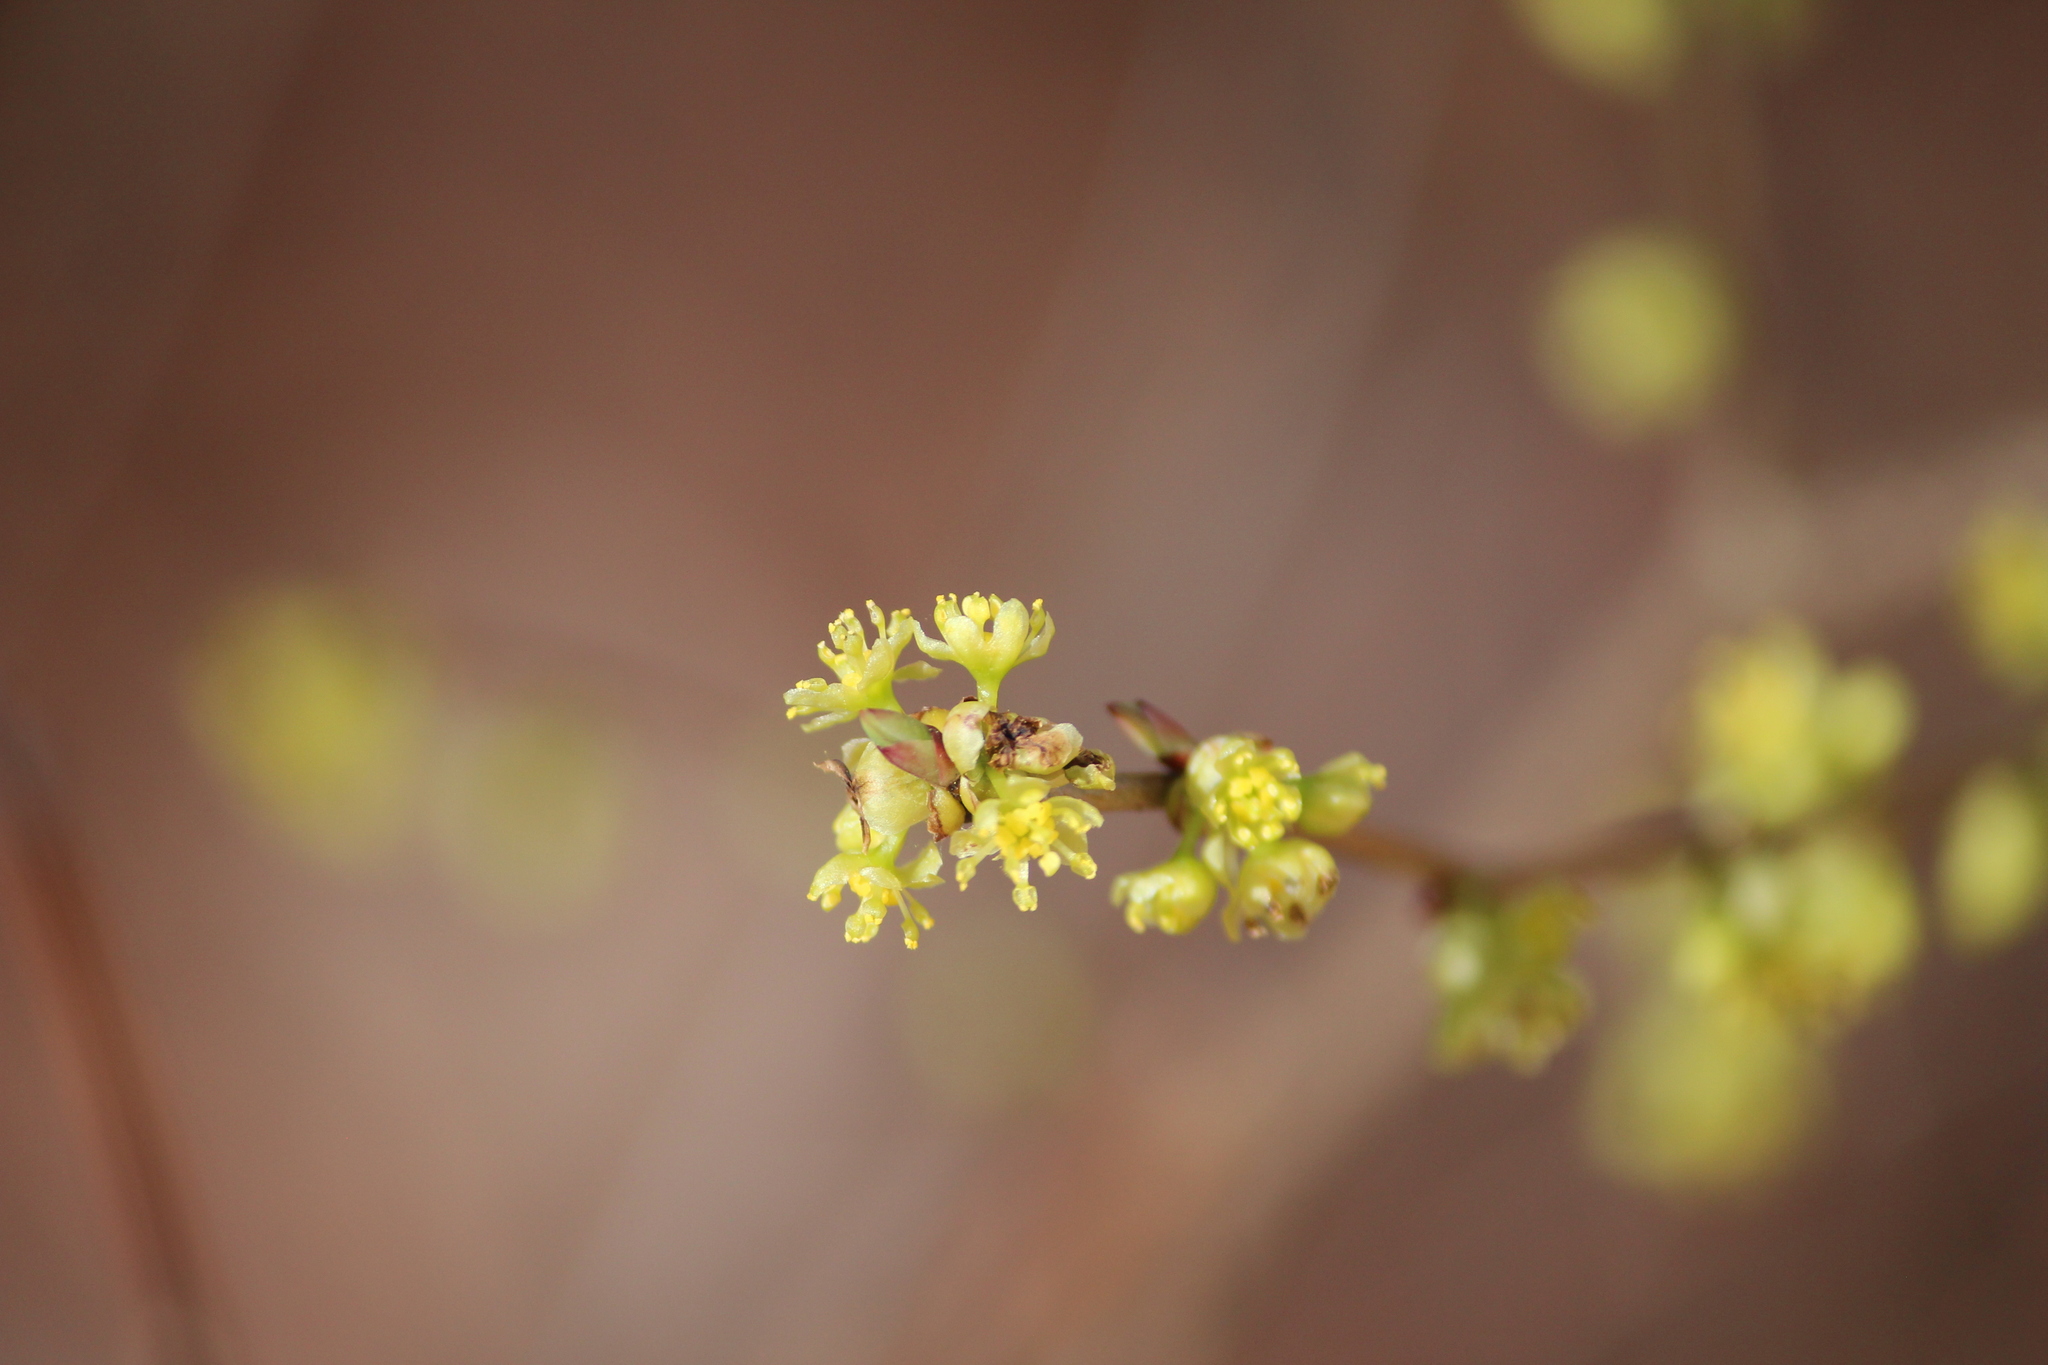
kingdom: Plantae
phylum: Tracheophyta
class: Magnoliopsida
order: Laurales
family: Lauraceae
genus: Lindera
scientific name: Lindera benzoin
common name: Spicebush
